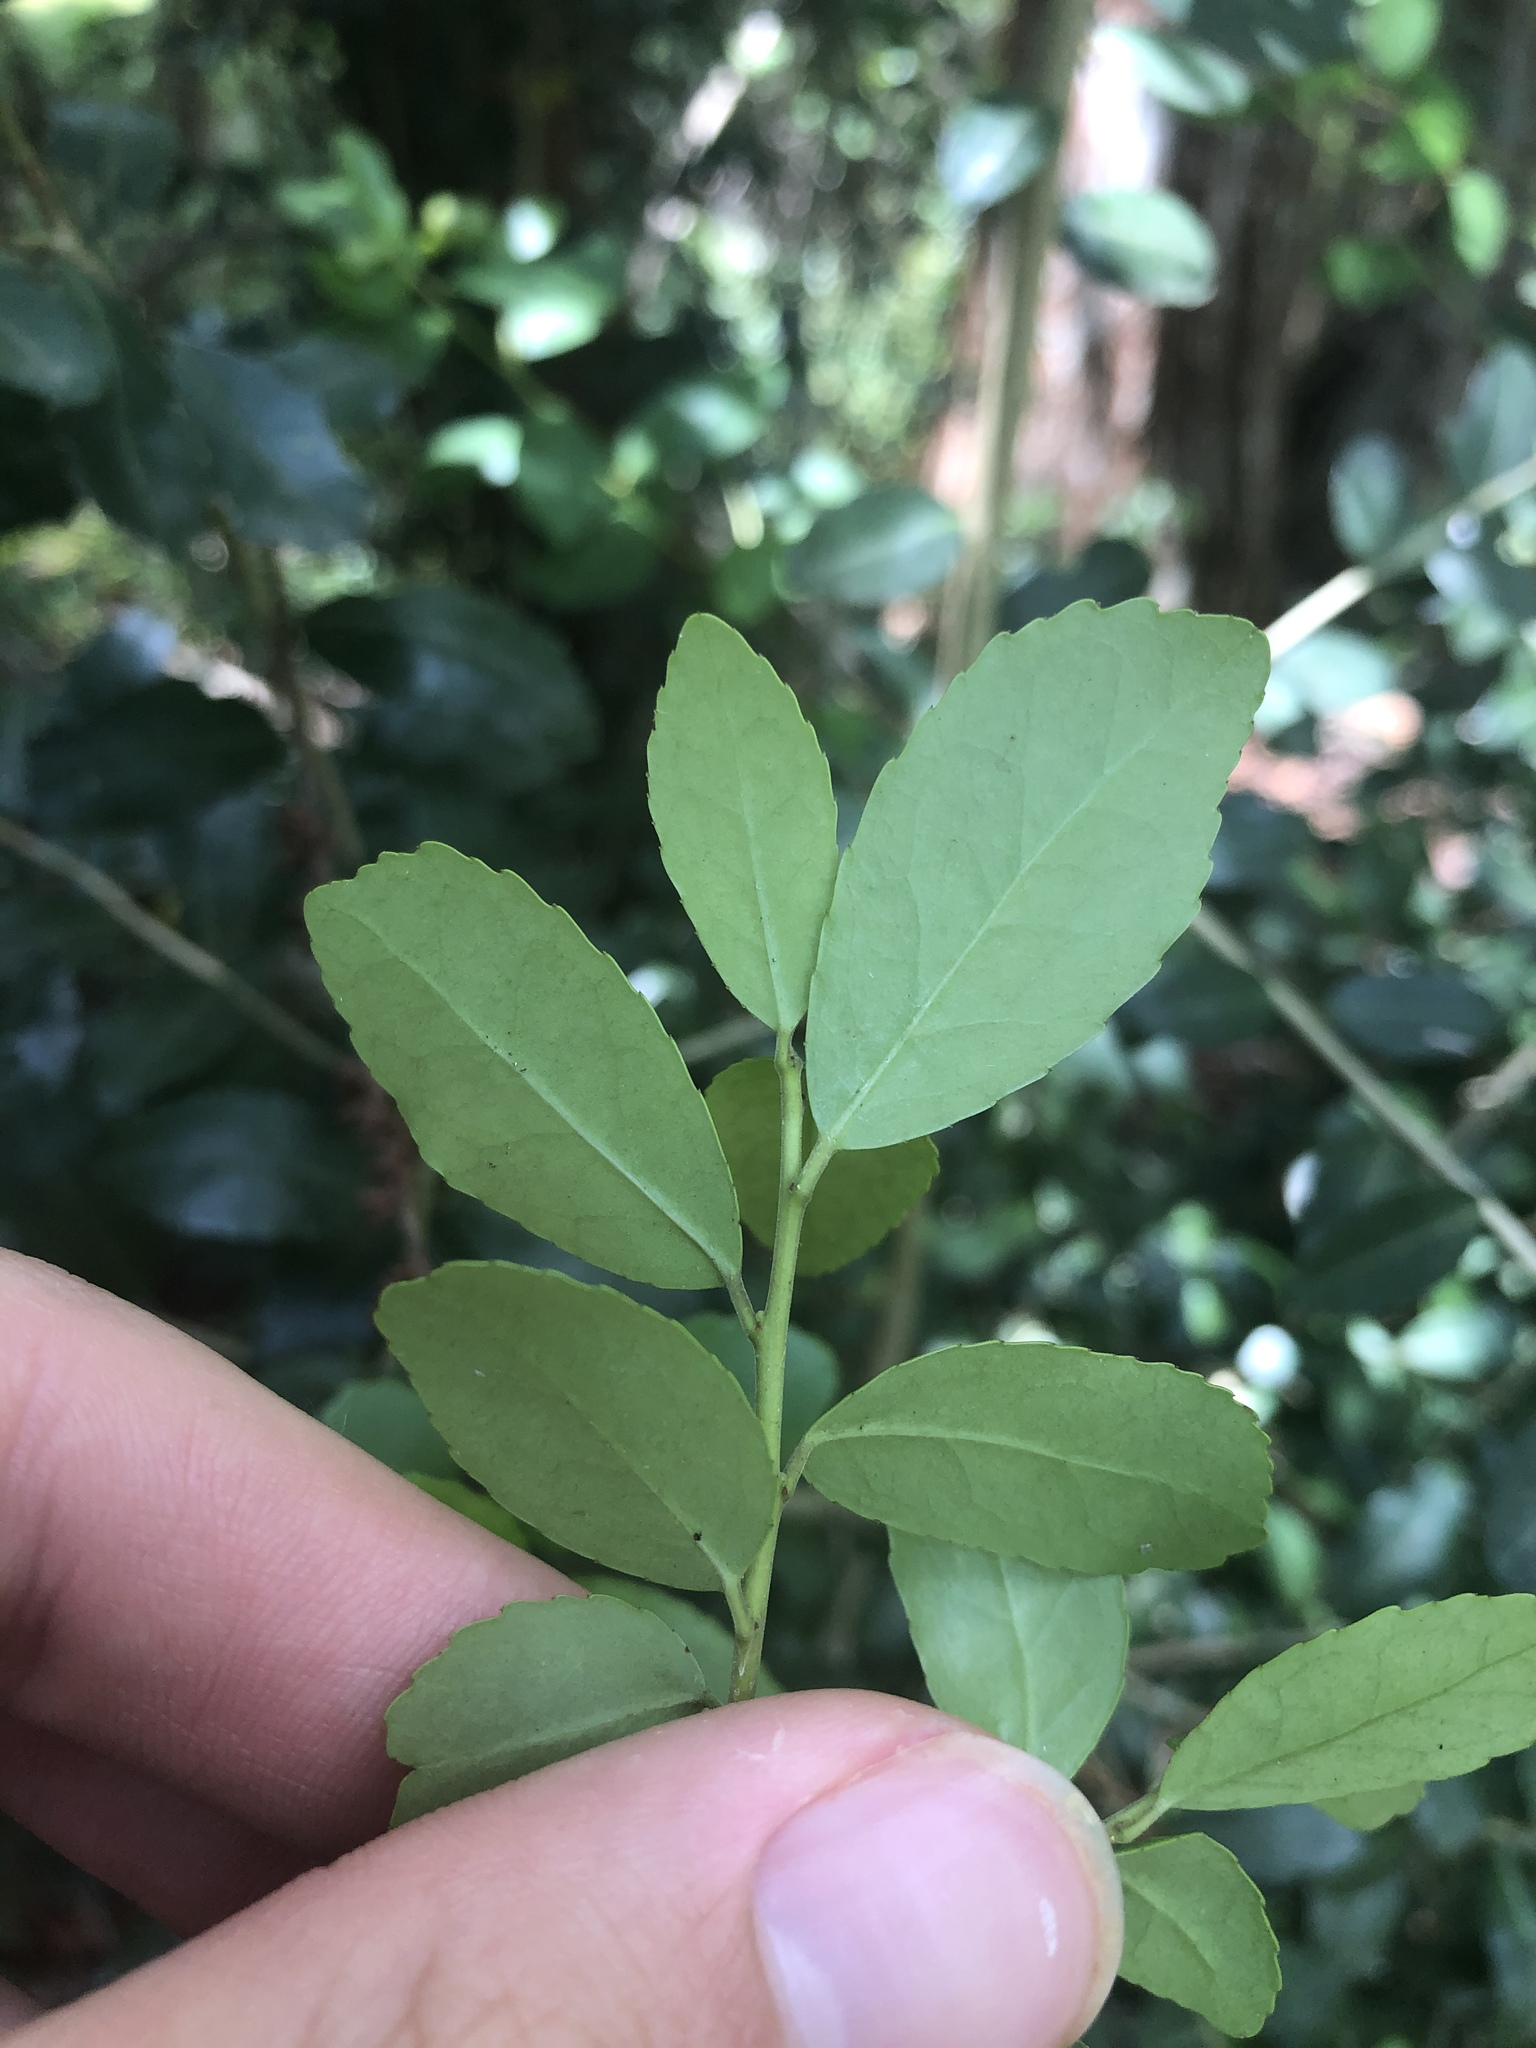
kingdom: Plantae
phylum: Tracheophyta
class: Magnoliopsida
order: Aquifoliales
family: Aquifoliaceae
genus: Ilex
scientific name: Ilex vomitoria
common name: Yaupon holly
